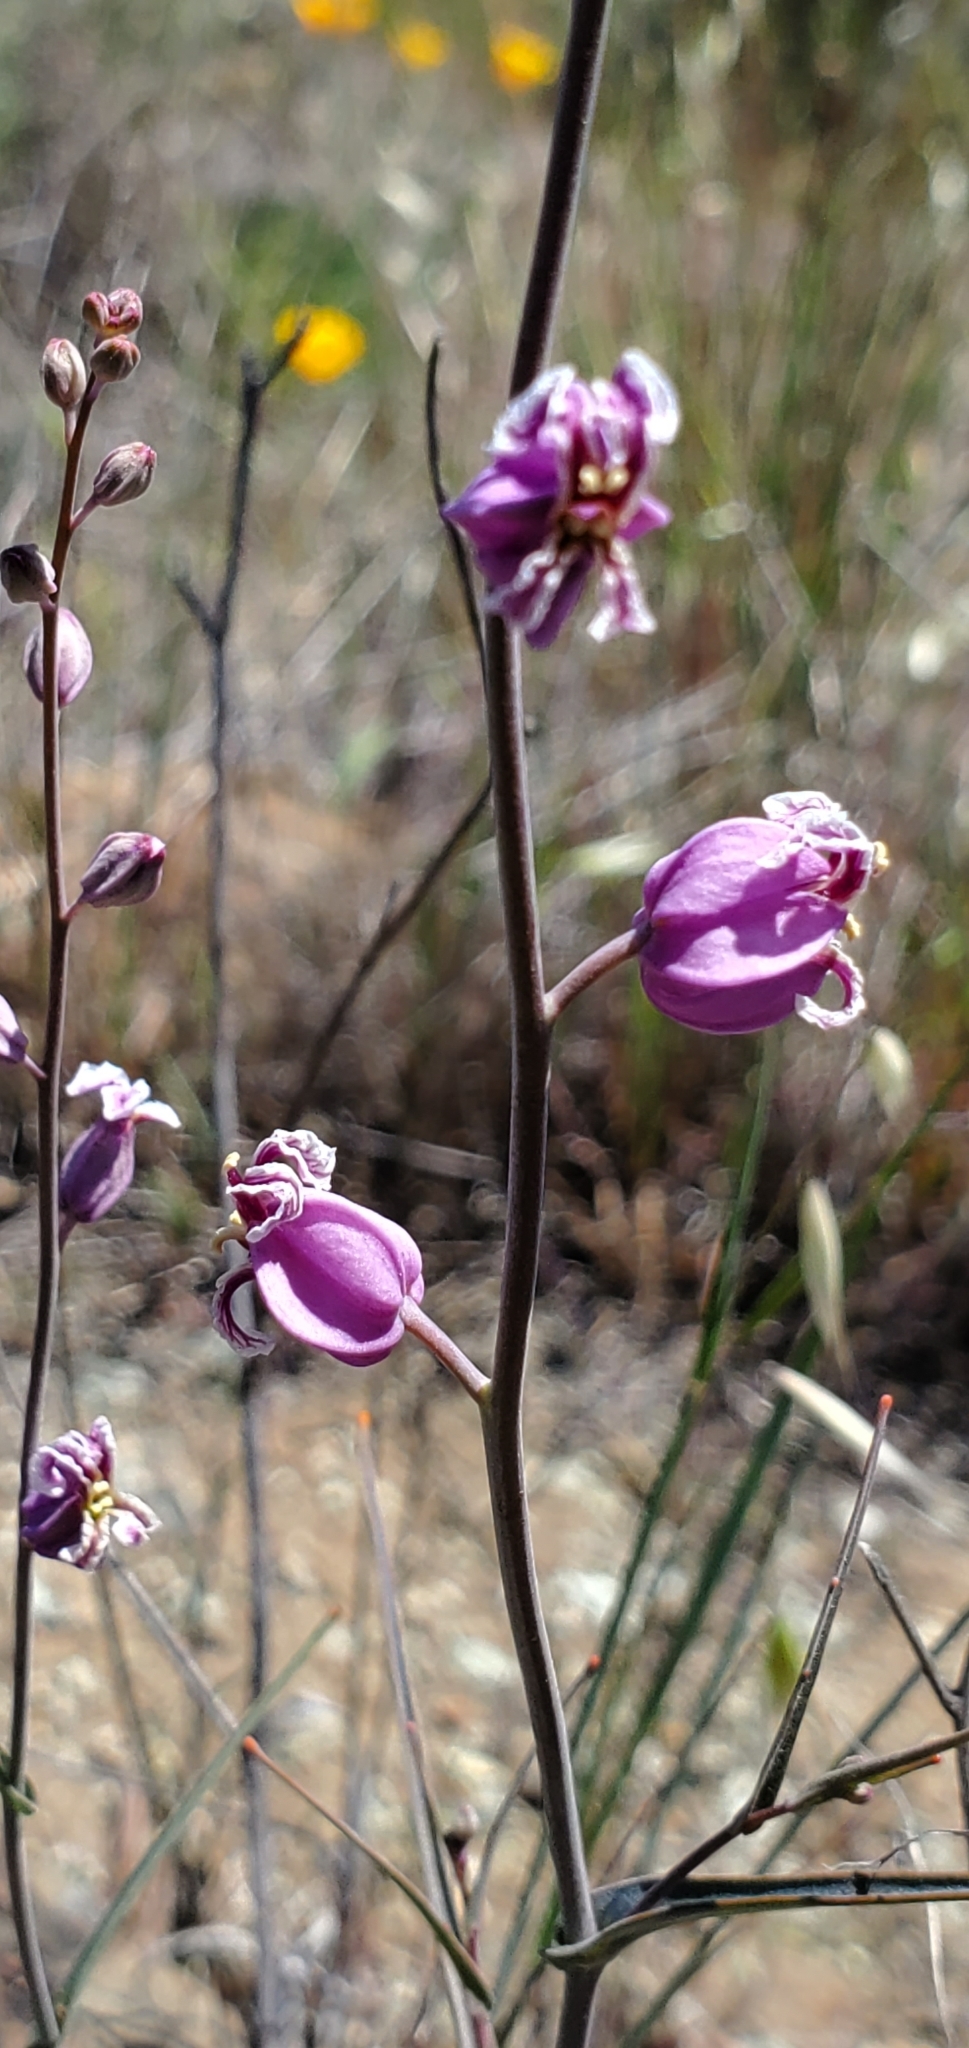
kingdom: Plantae
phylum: Tracheophyta
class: Magnoliopsida
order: Brassicales
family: Brassicaceae
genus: Streptanthus
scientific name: Streptanthus glandulosus
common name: Jewel-flower
